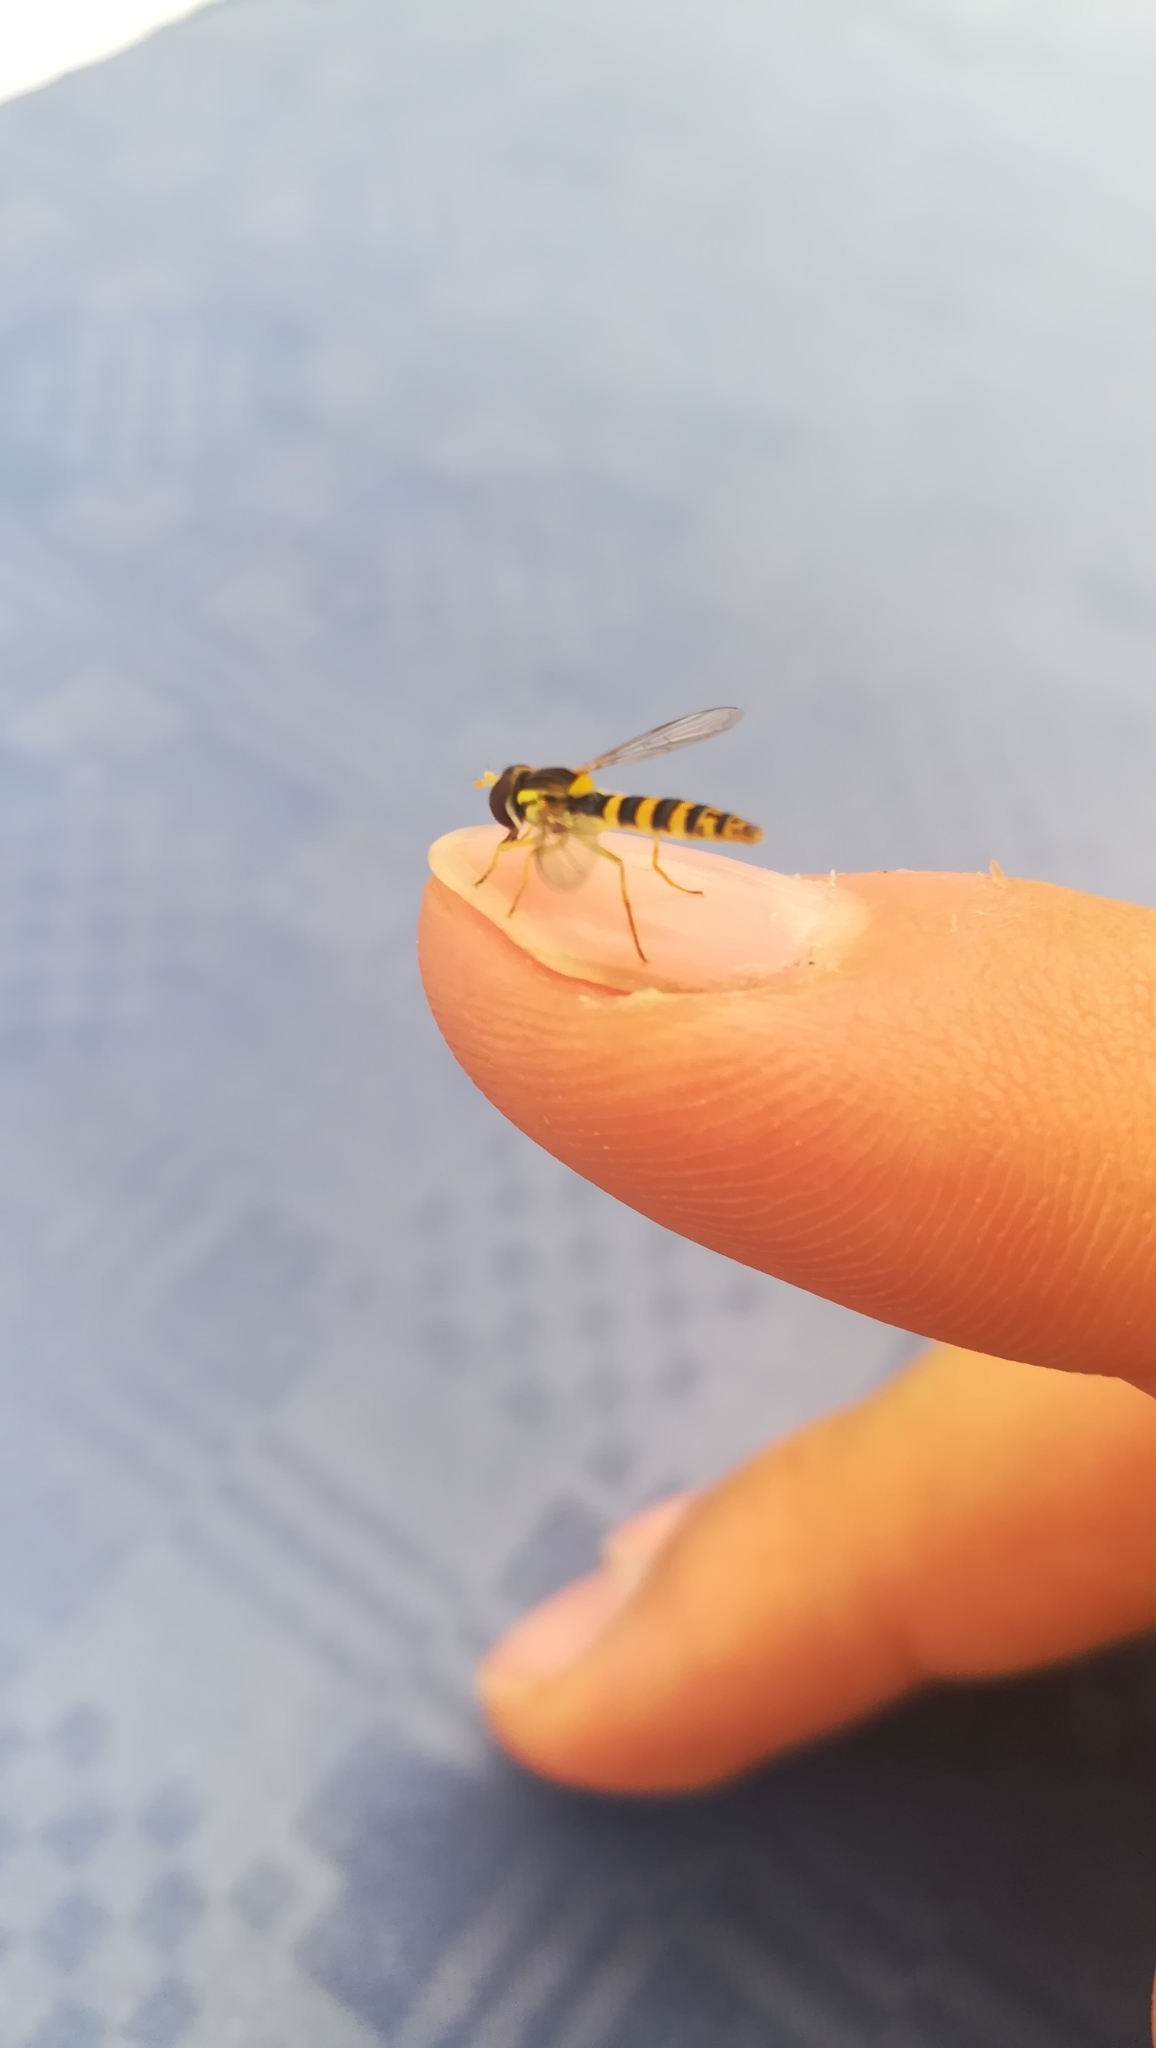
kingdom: Animalia
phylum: Arthropoda
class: Insecta
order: Diptera
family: Syrphidae
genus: Sphaerophoria
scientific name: Sphaerophoria scripta
